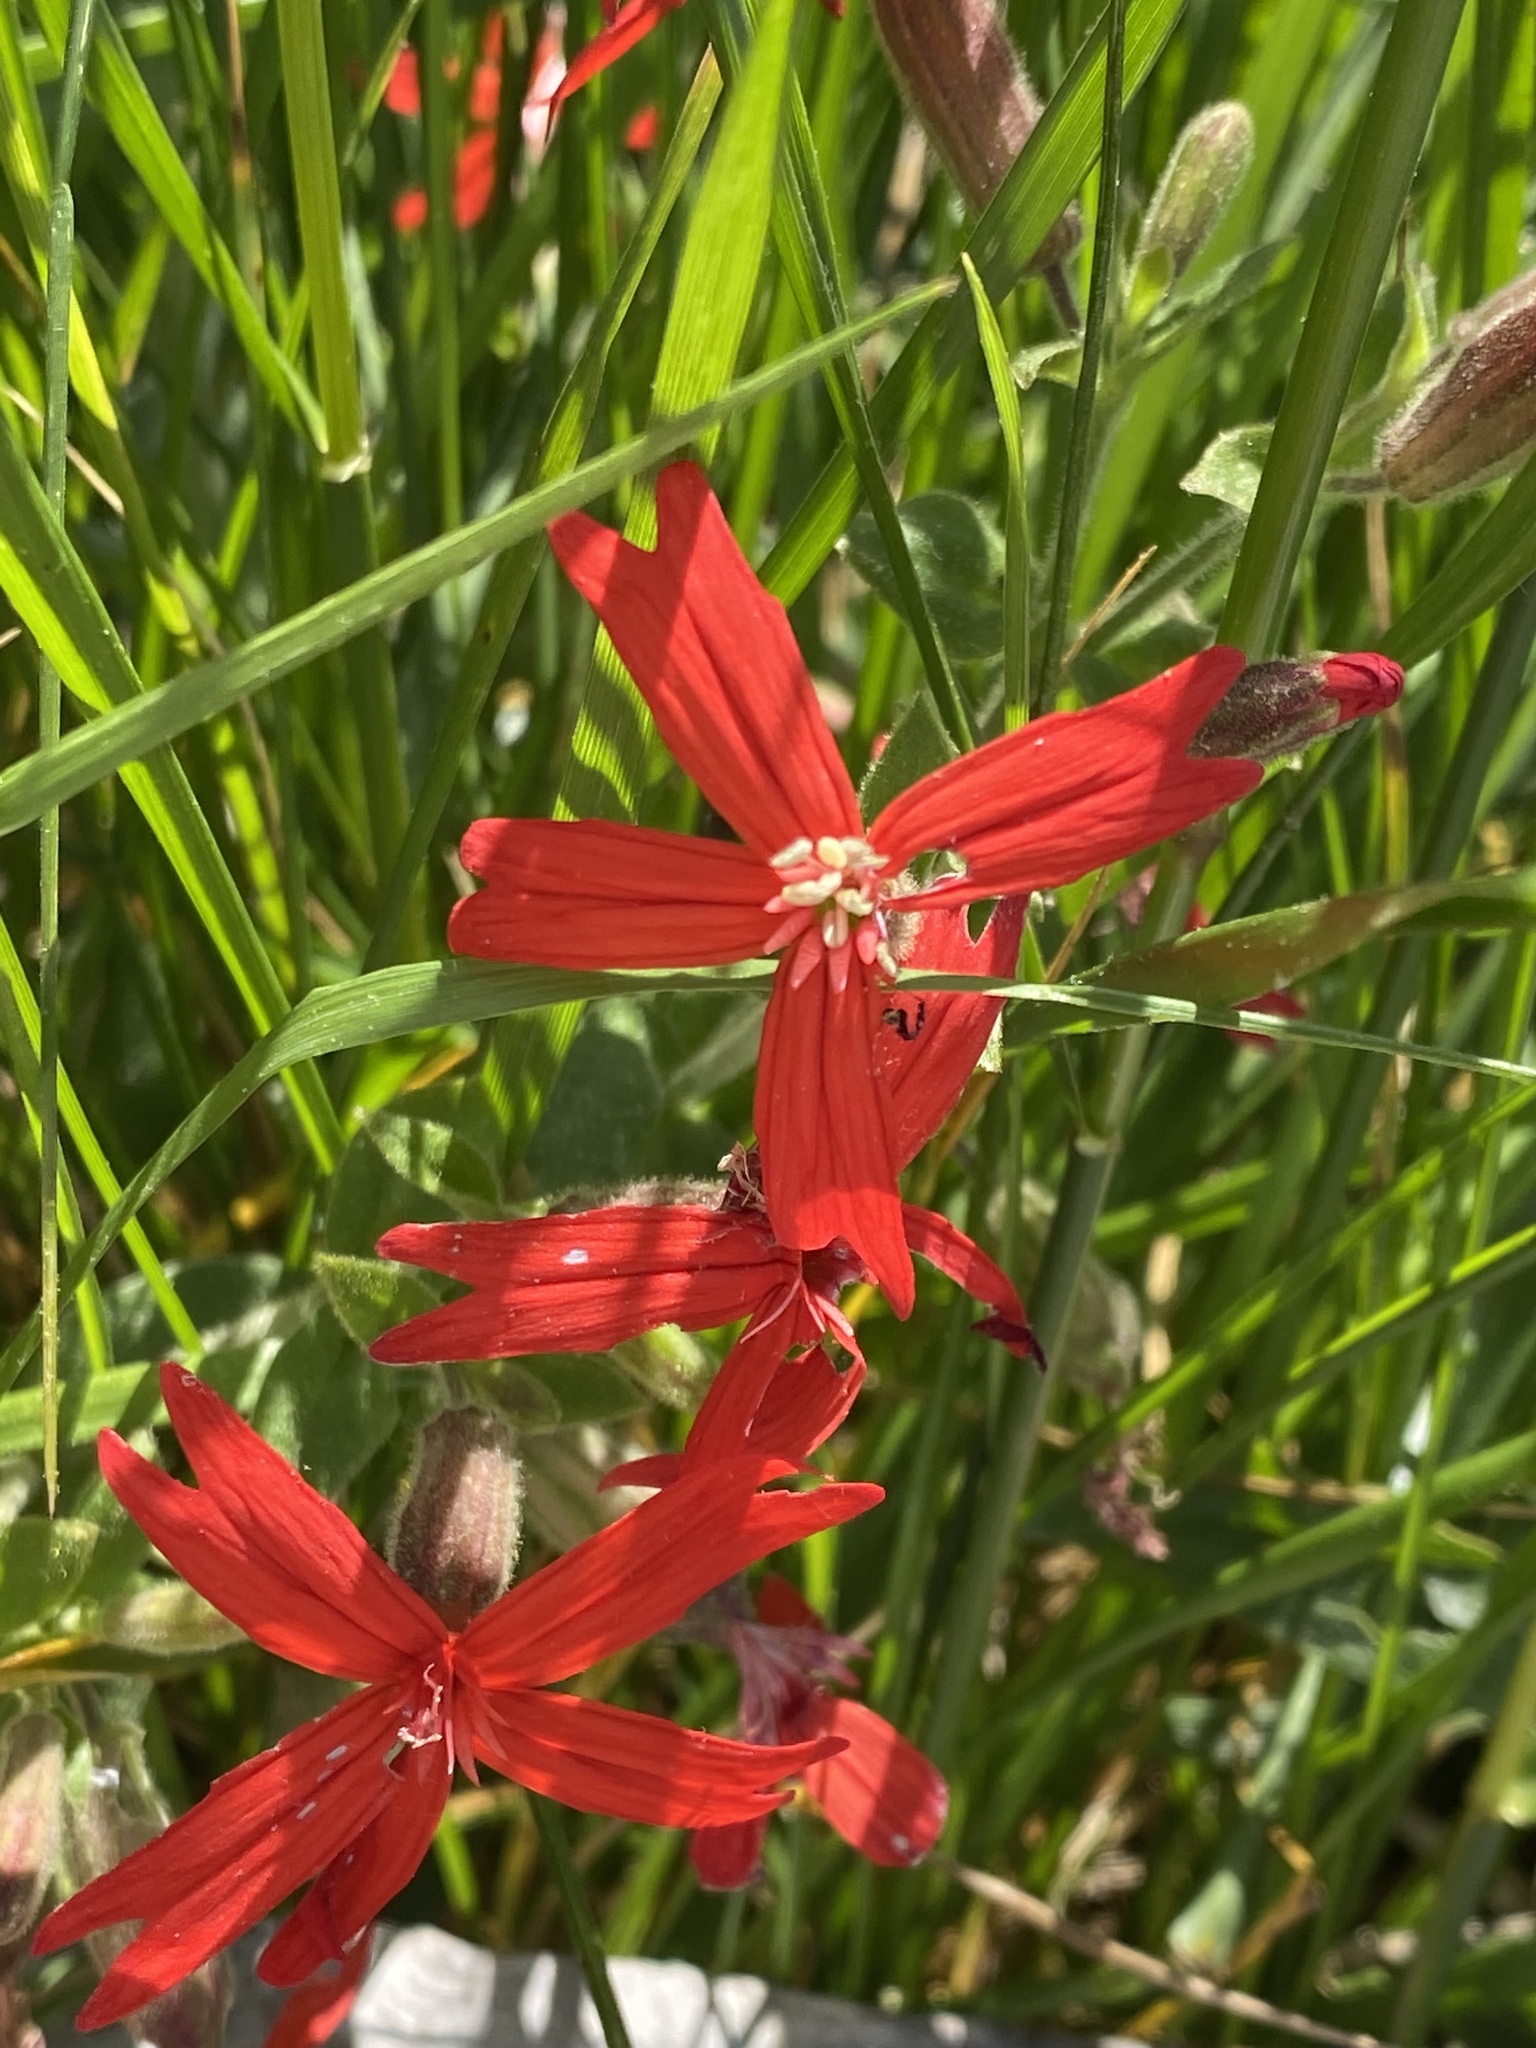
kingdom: Plantae
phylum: Tracheophyta
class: Magnoliopsida
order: Caryophyllales
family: Caryophyllaceae
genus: Silene
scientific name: Silene virginica
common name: Fire-pink
